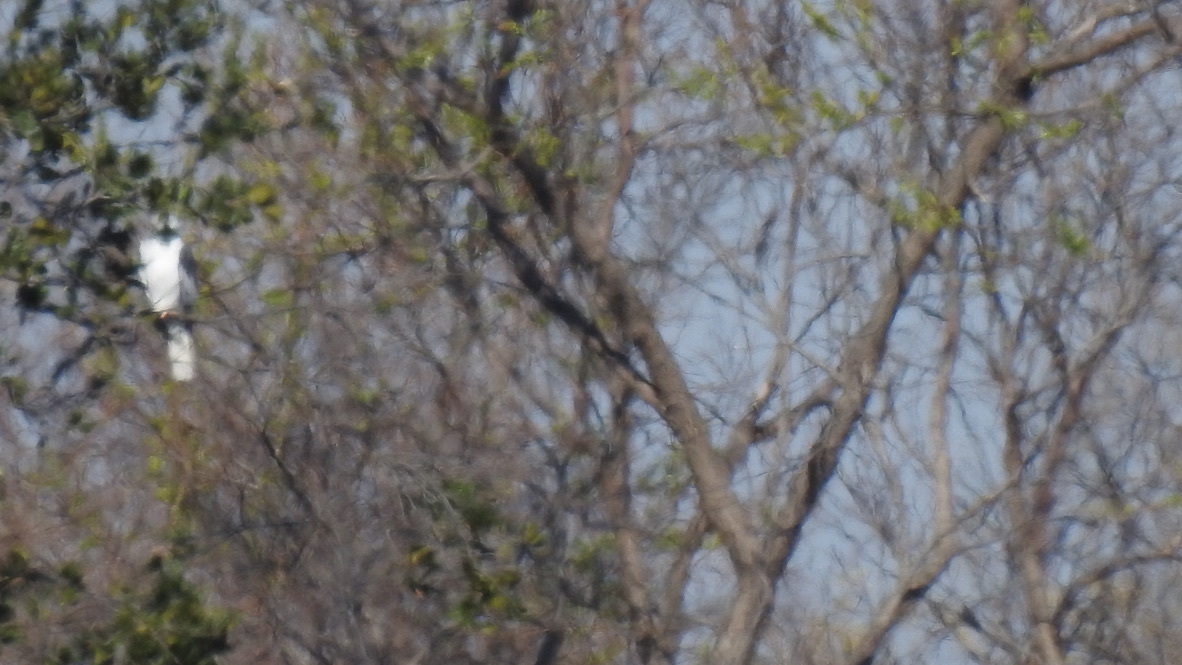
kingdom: Animalia
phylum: Chordata
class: Aves
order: Accipitriformes
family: Accipitridae
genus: Elanus
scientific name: Elanus leucurus
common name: White-tailed kite
